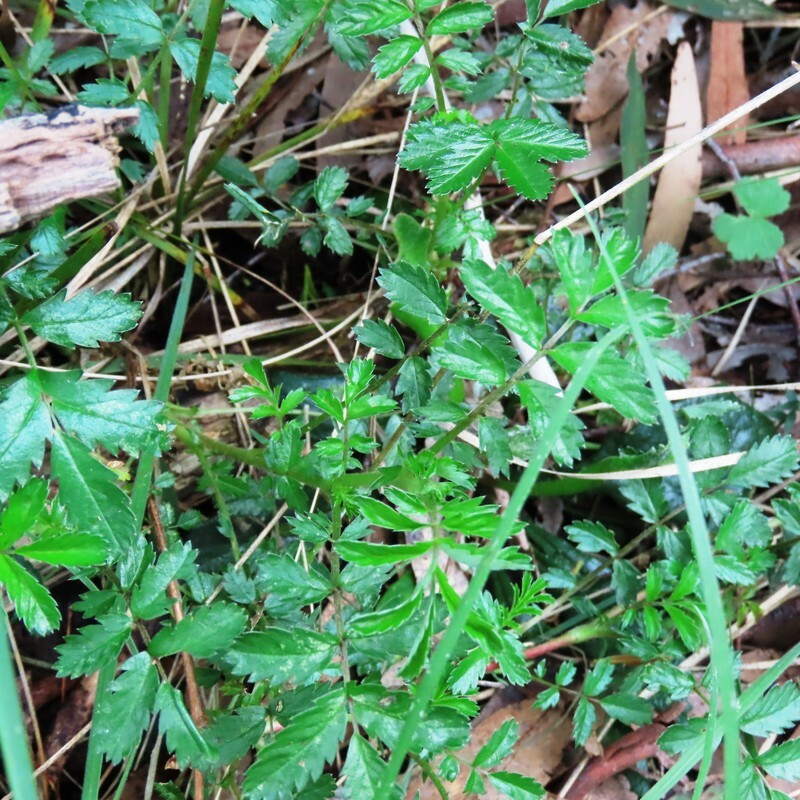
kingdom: Plantae
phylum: Tracheophyta
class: Magnoliopsida
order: Rosales
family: Rosaceae
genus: Acaena
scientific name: Acaena novae-zelandiae
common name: Pirri-pirri-bur
